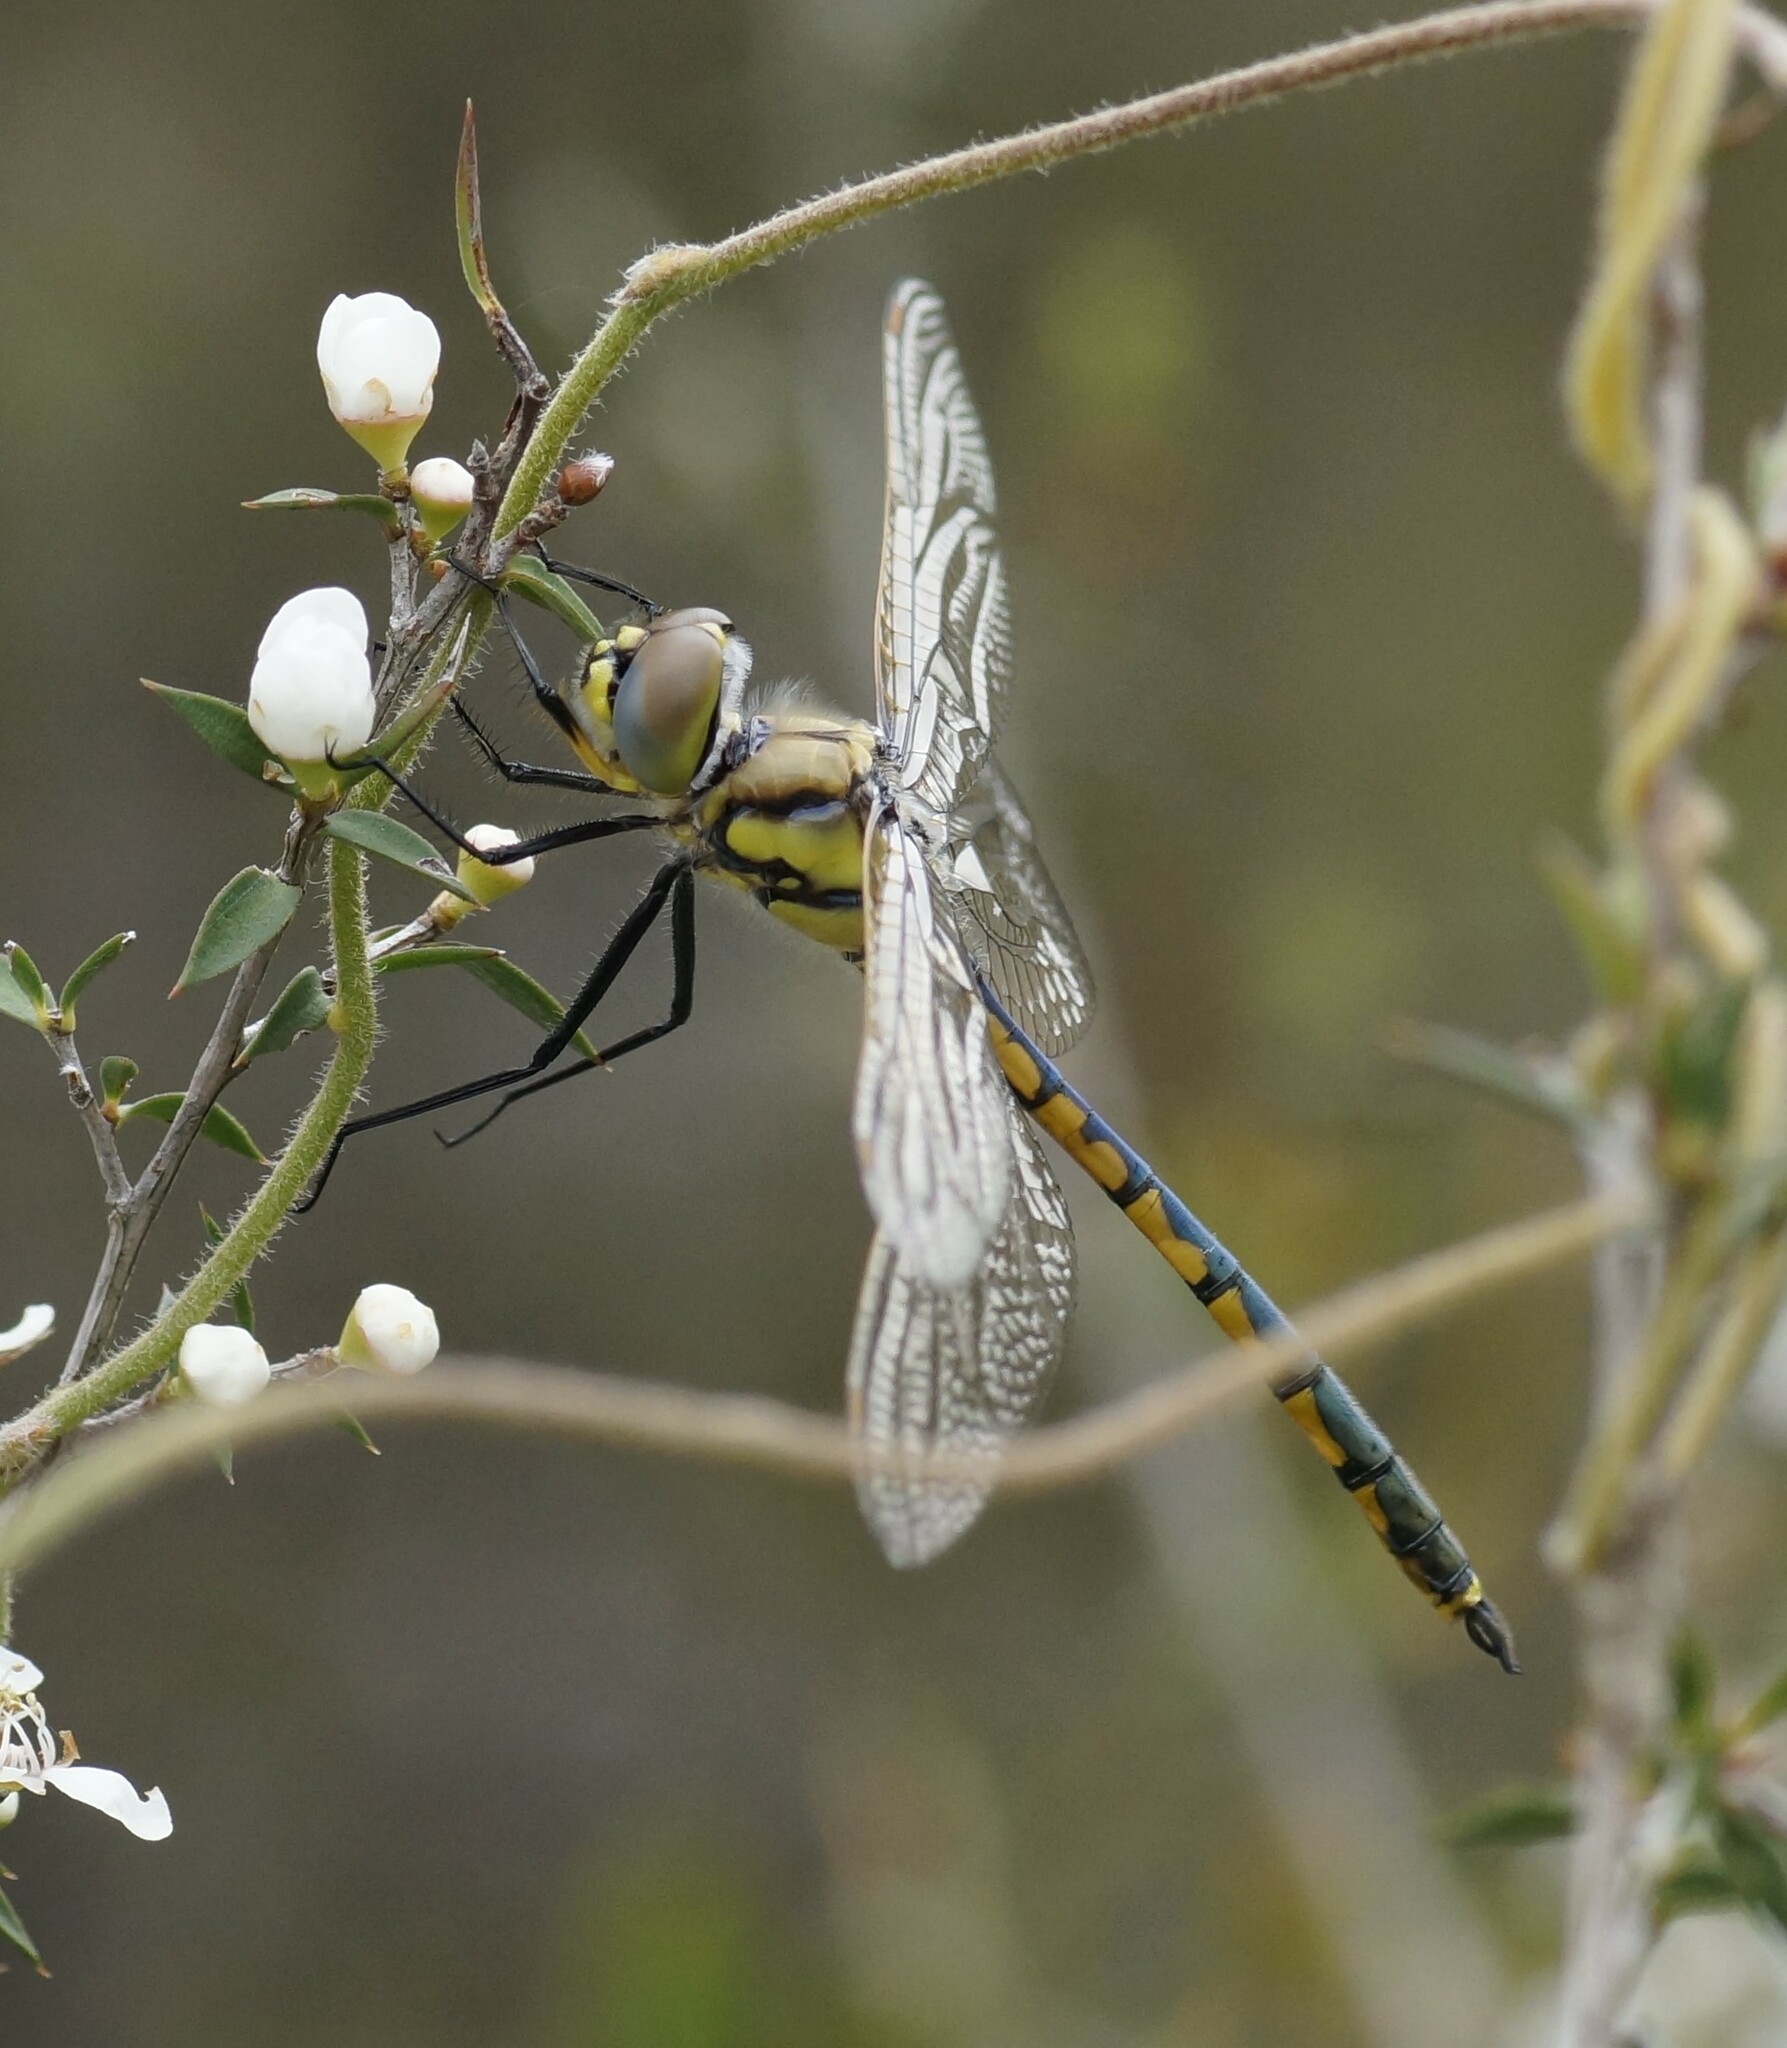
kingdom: Animalia
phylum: Arthropoda
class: Insecta
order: Odonata
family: Corduliidae
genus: Hemicordulia
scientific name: Hemicordulia tau
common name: Tau emerald
